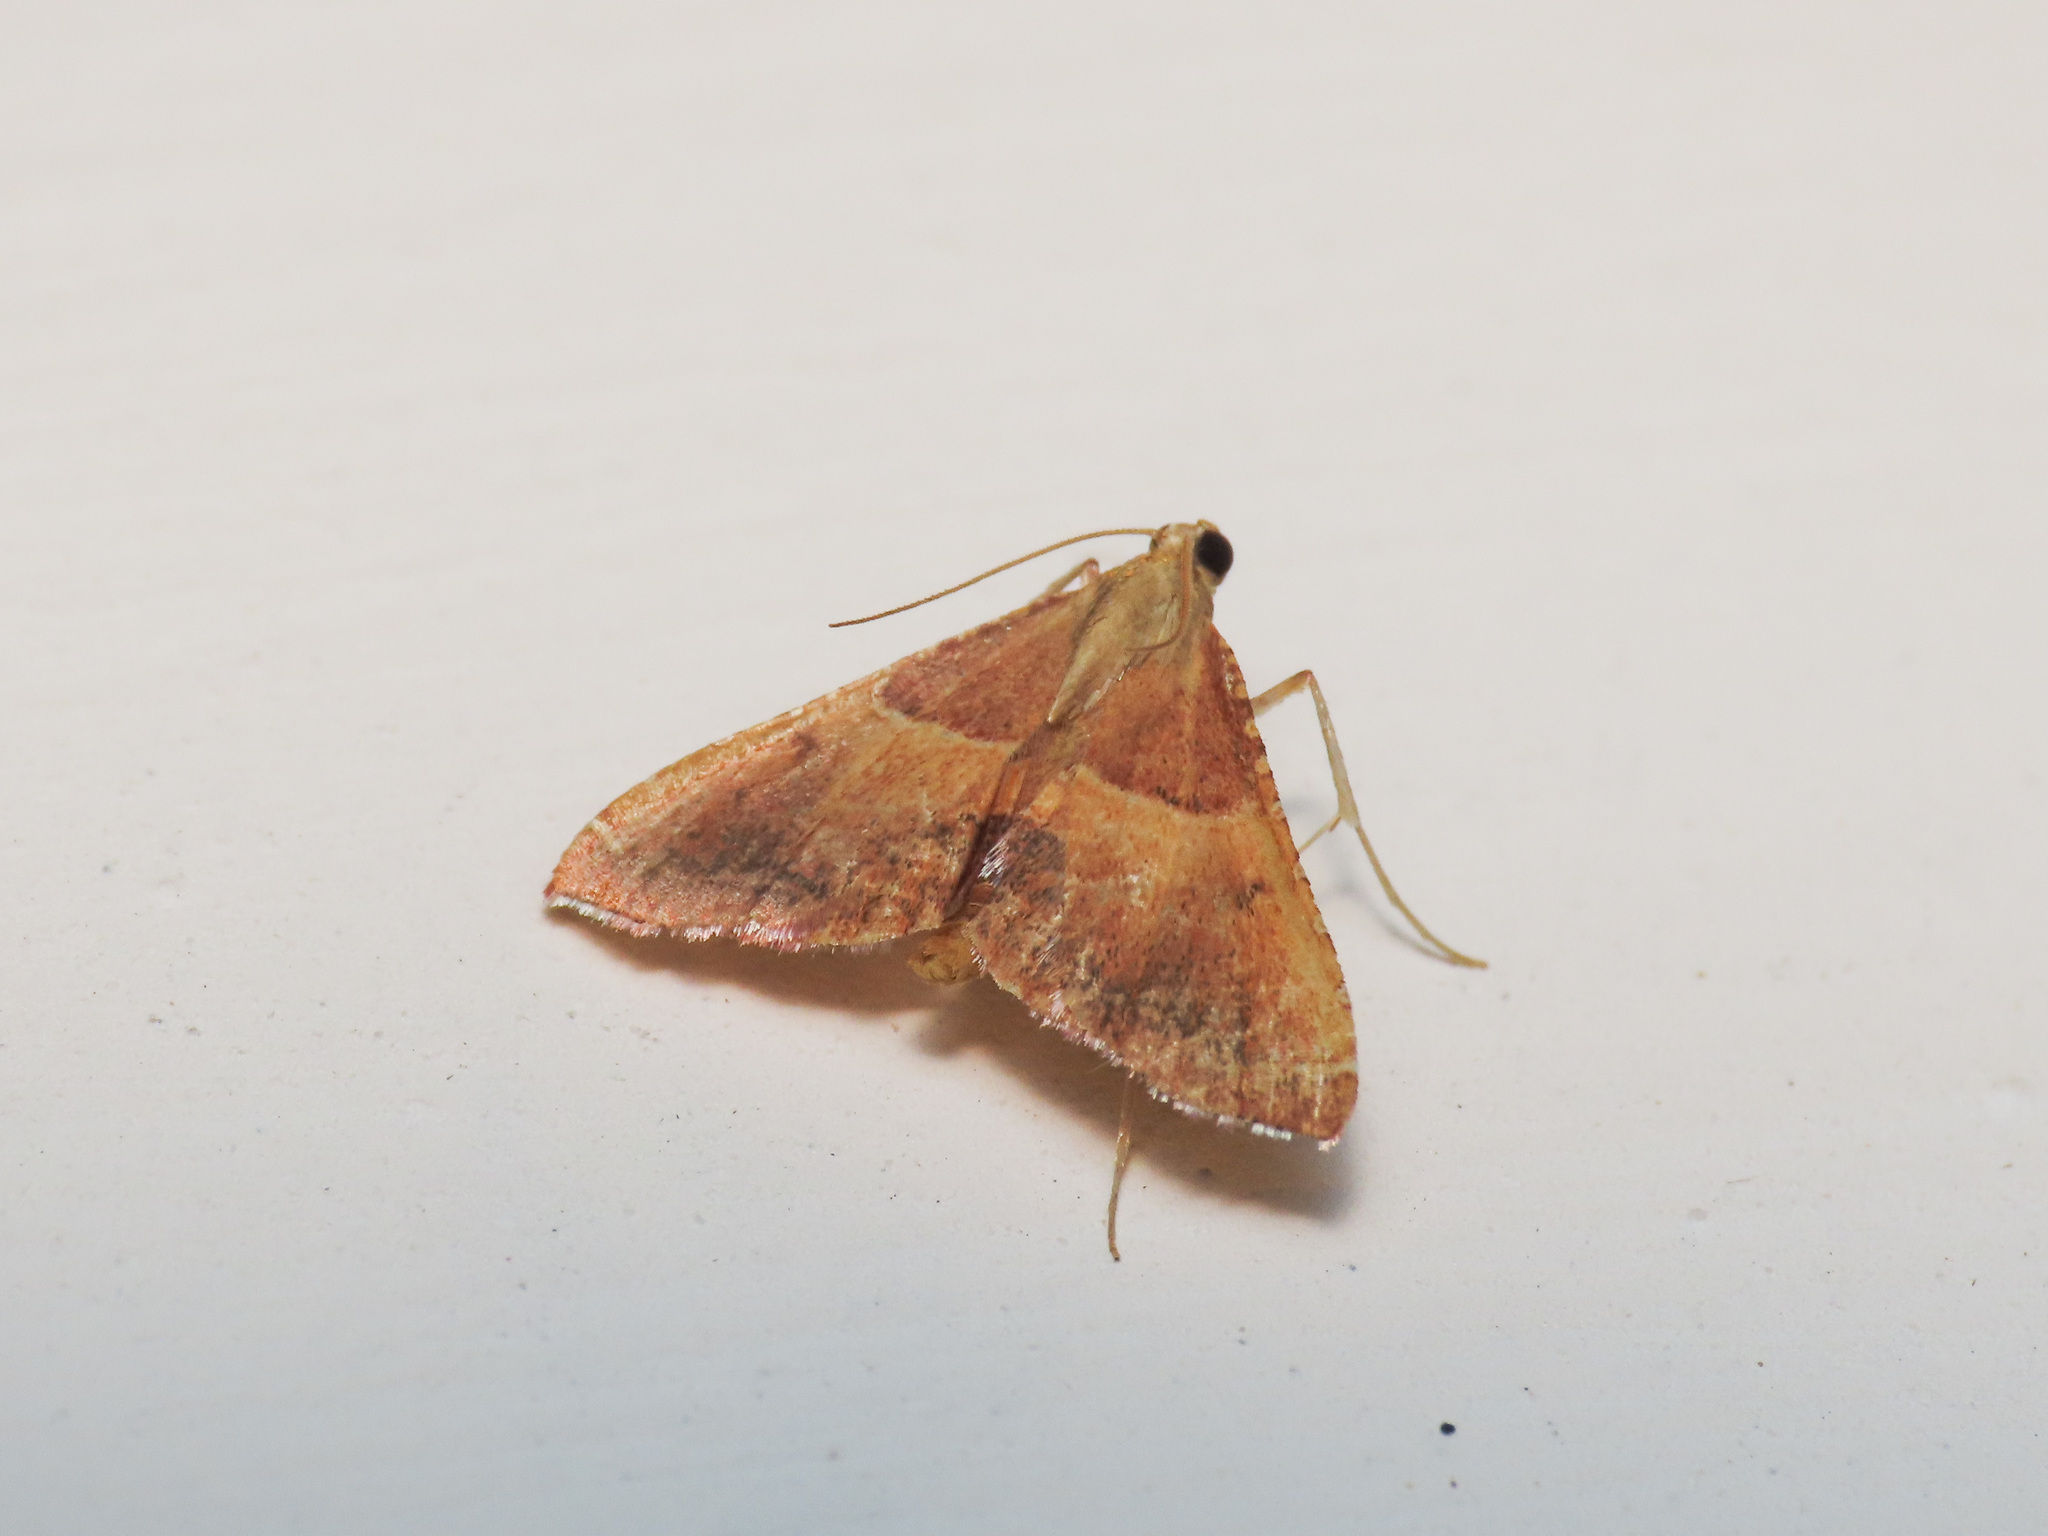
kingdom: Animalia
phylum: Arthropoda
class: Insecta
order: Lepidoptera
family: Pyralidae
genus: Endotricha
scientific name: Endotricha flammealis
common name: Rosy tabby
